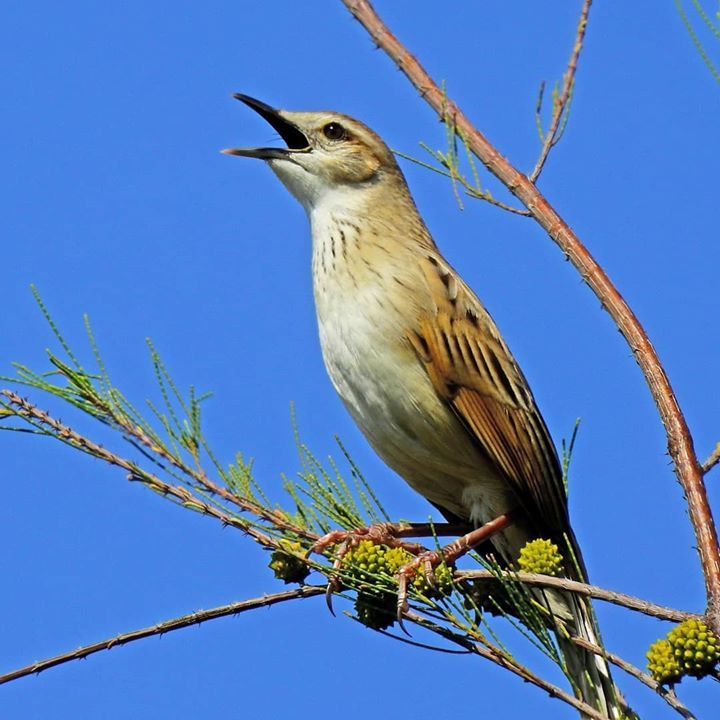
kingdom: Animalia
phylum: Chordata
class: Aves
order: Passeriformes
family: Locustellidae
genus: Megalurus
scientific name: Megalurus palustris
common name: Striated grassbird
